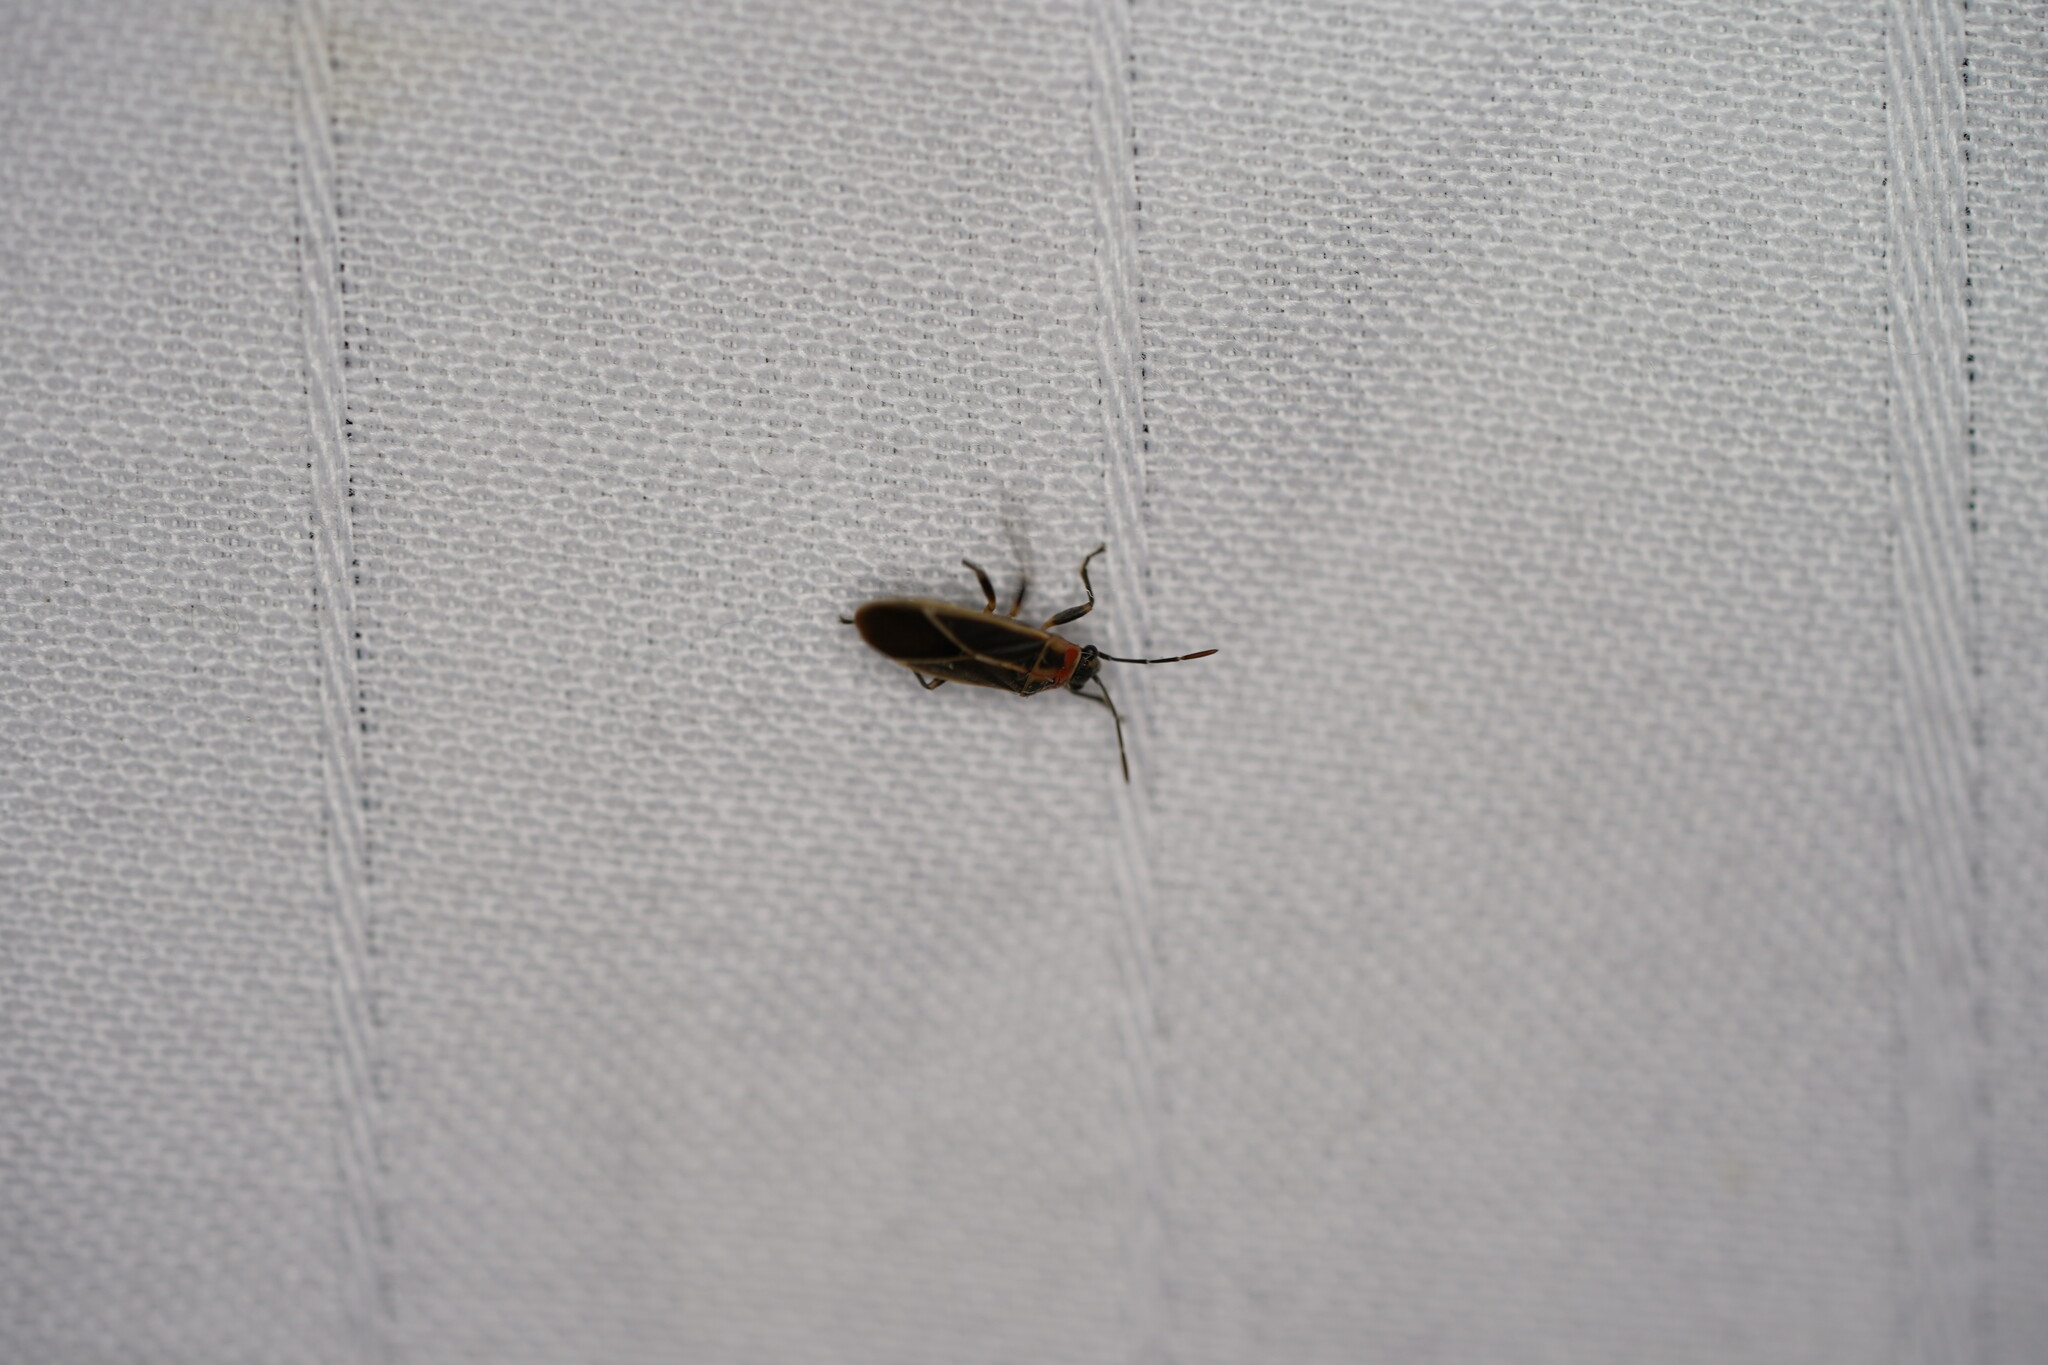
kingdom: Animalia
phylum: Arthropoda
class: Insecta
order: Hemiptera
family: Lygaeidae
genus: Ochrimnus
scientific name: Ochrimnus mimulus
